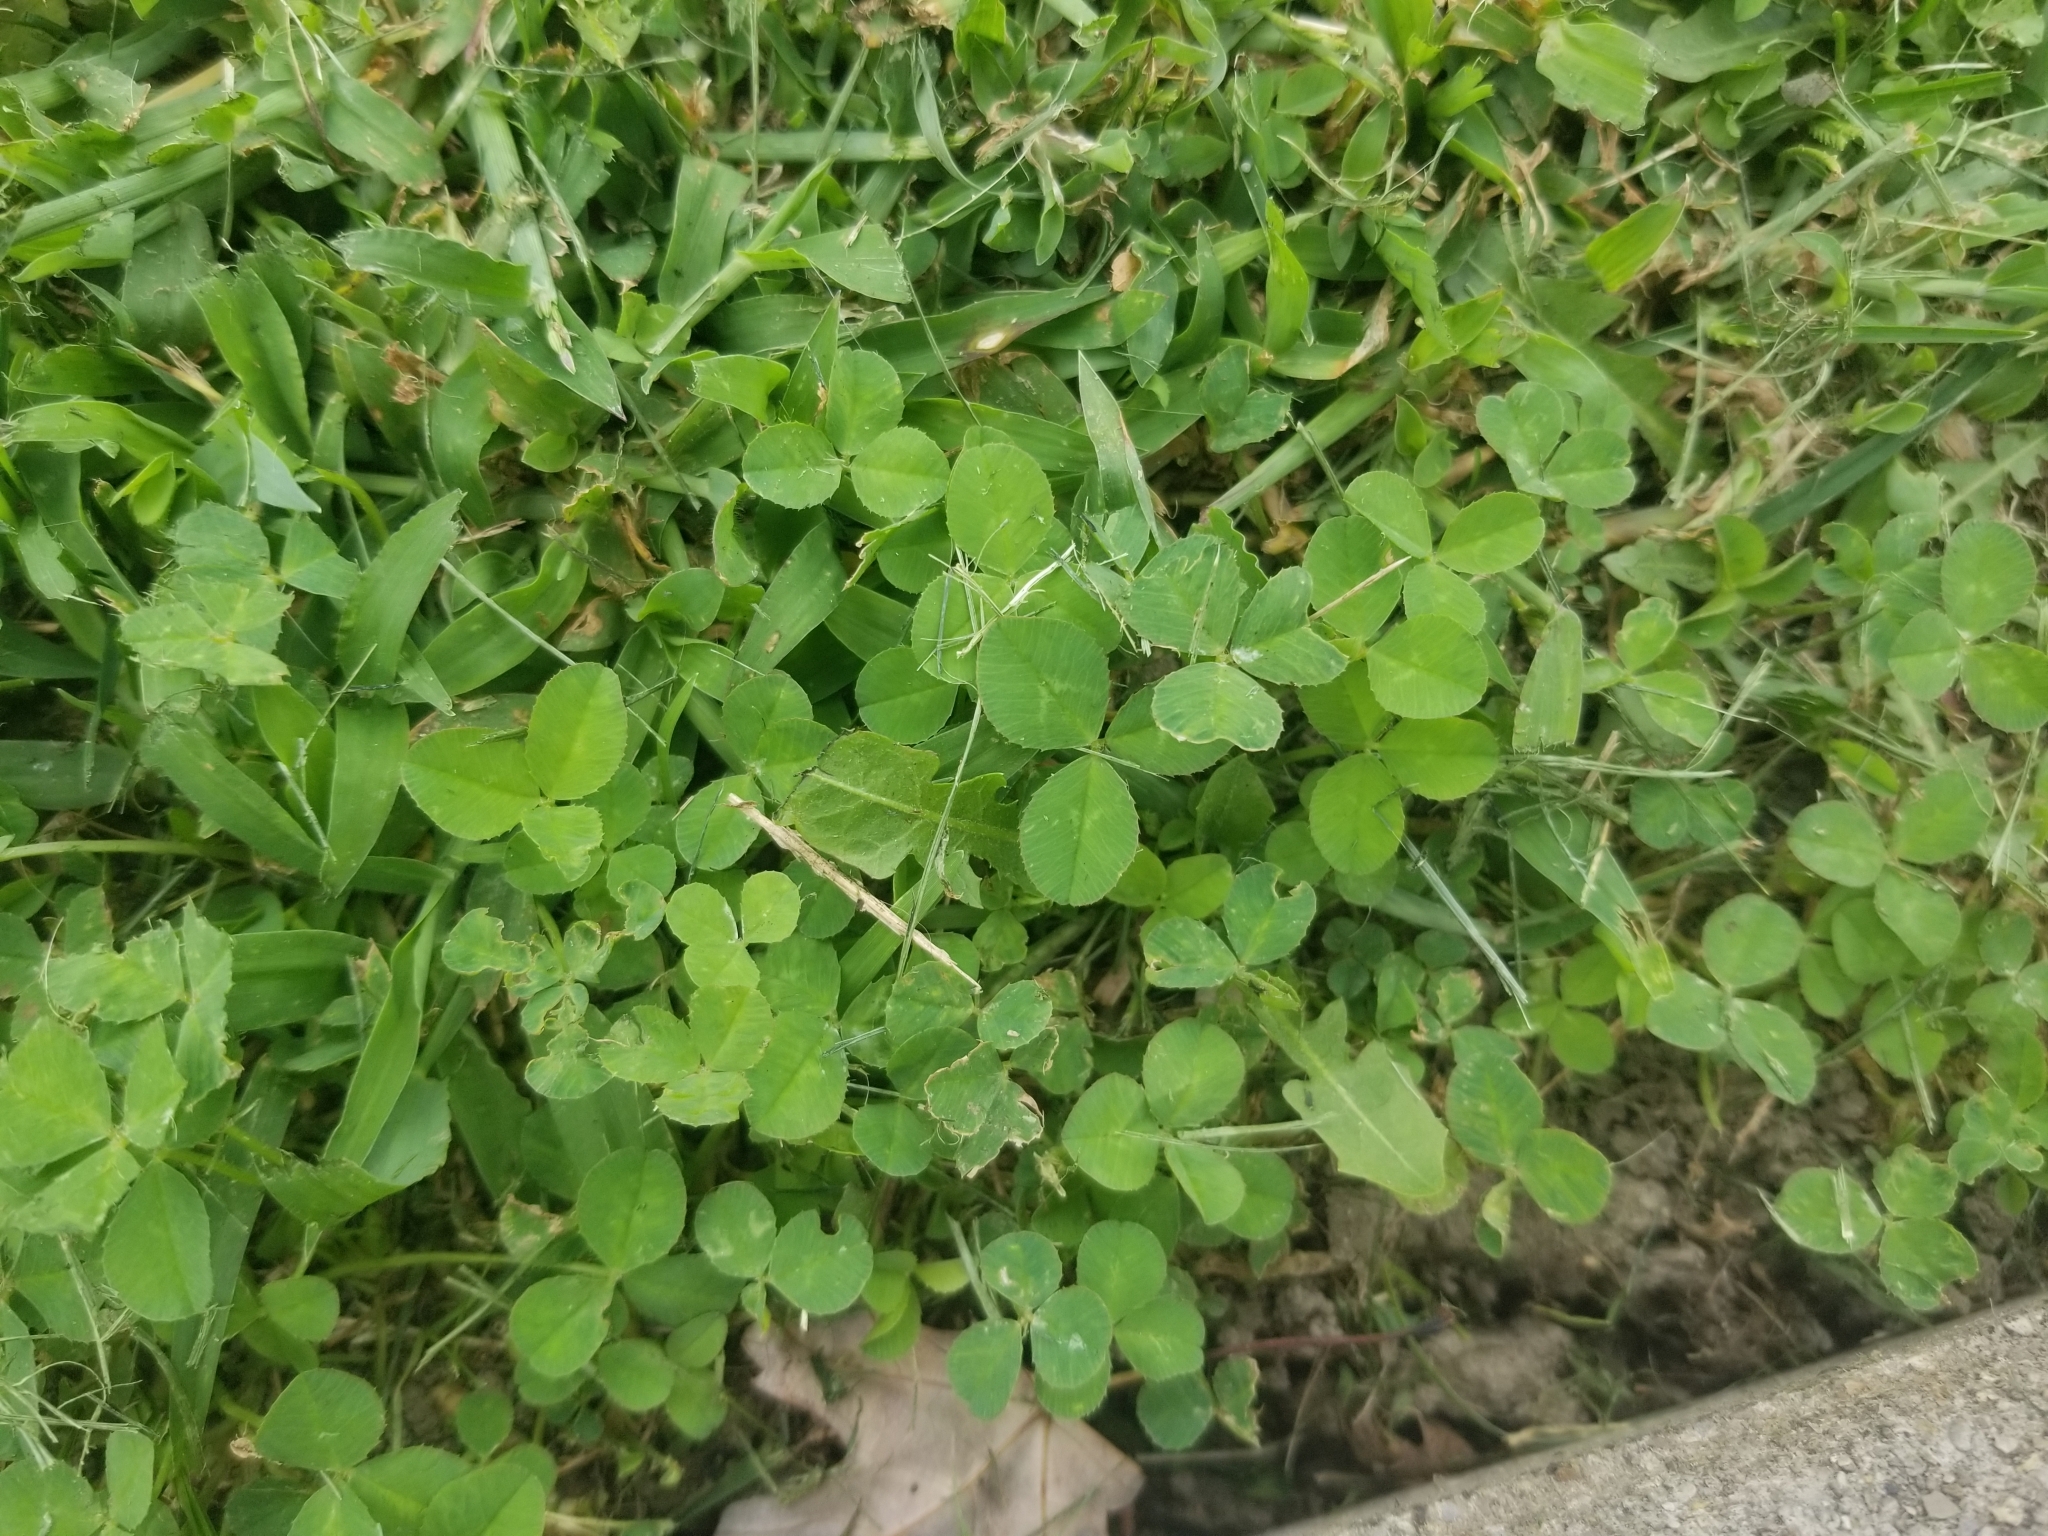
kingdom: Plantae
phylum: Tracheophyta
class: Magnoliopsida
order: Fabales
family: Fabaceae
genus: Trifolium
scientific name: Trifolium repens
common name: White clover
